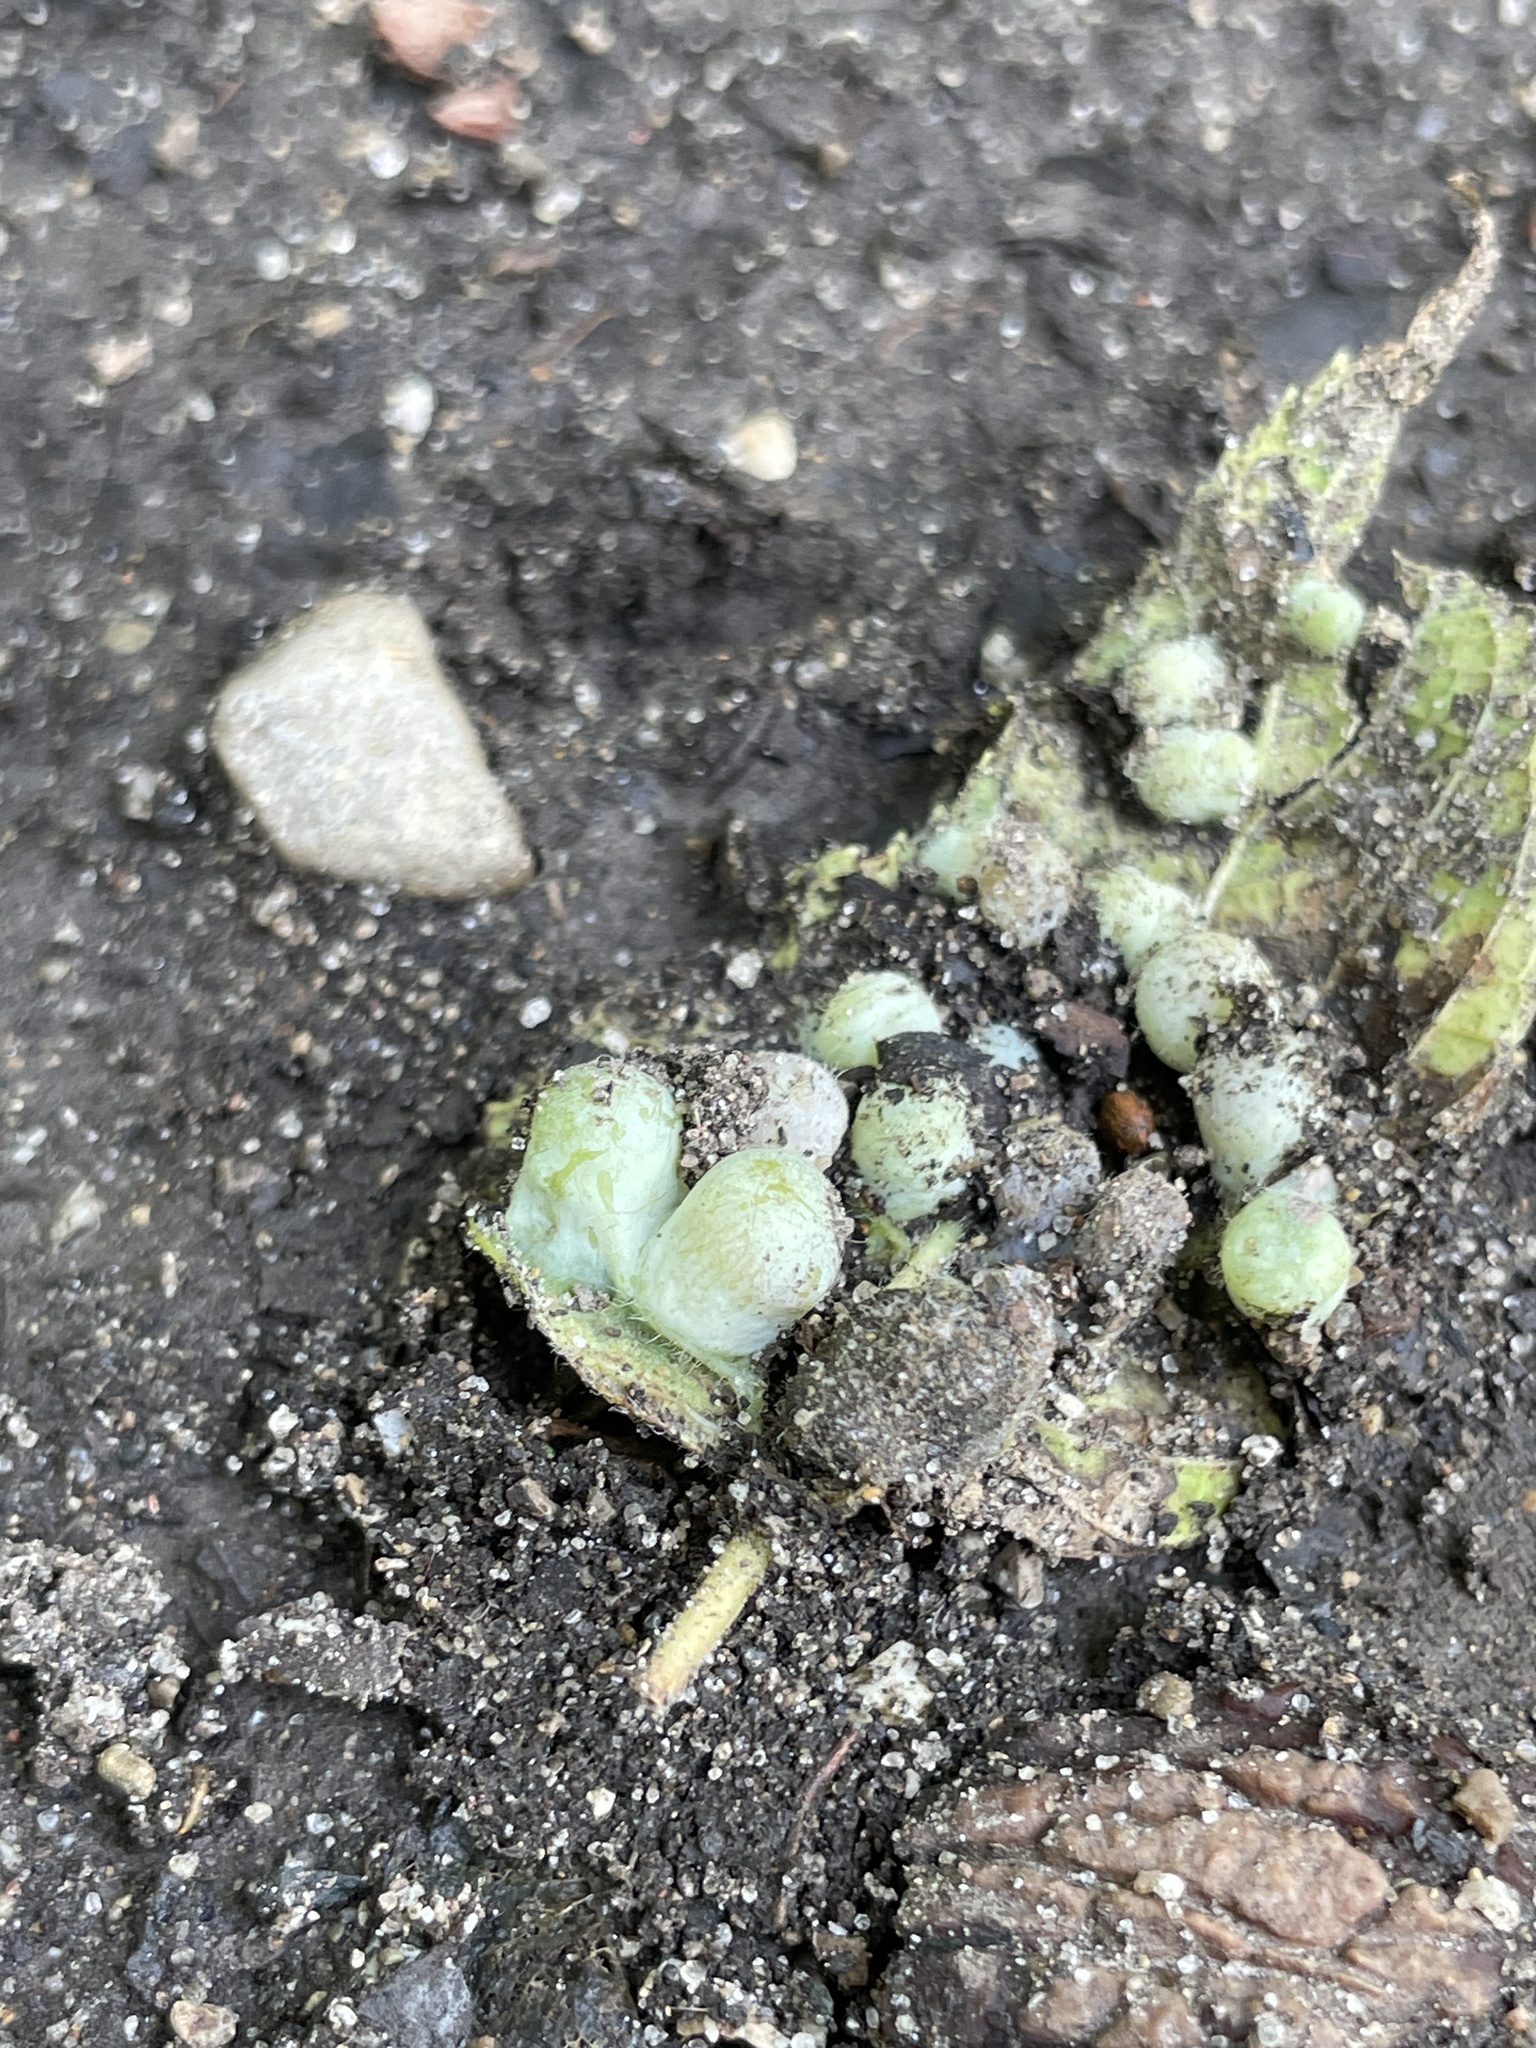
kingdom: Animalia
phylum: Arthropoda
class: Insecta
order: Hemiptera
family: Aphalaridae
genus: Pachypsylla
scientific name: Pachypsylla celtidismamma
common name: Hackberry nipplegall psyllid
